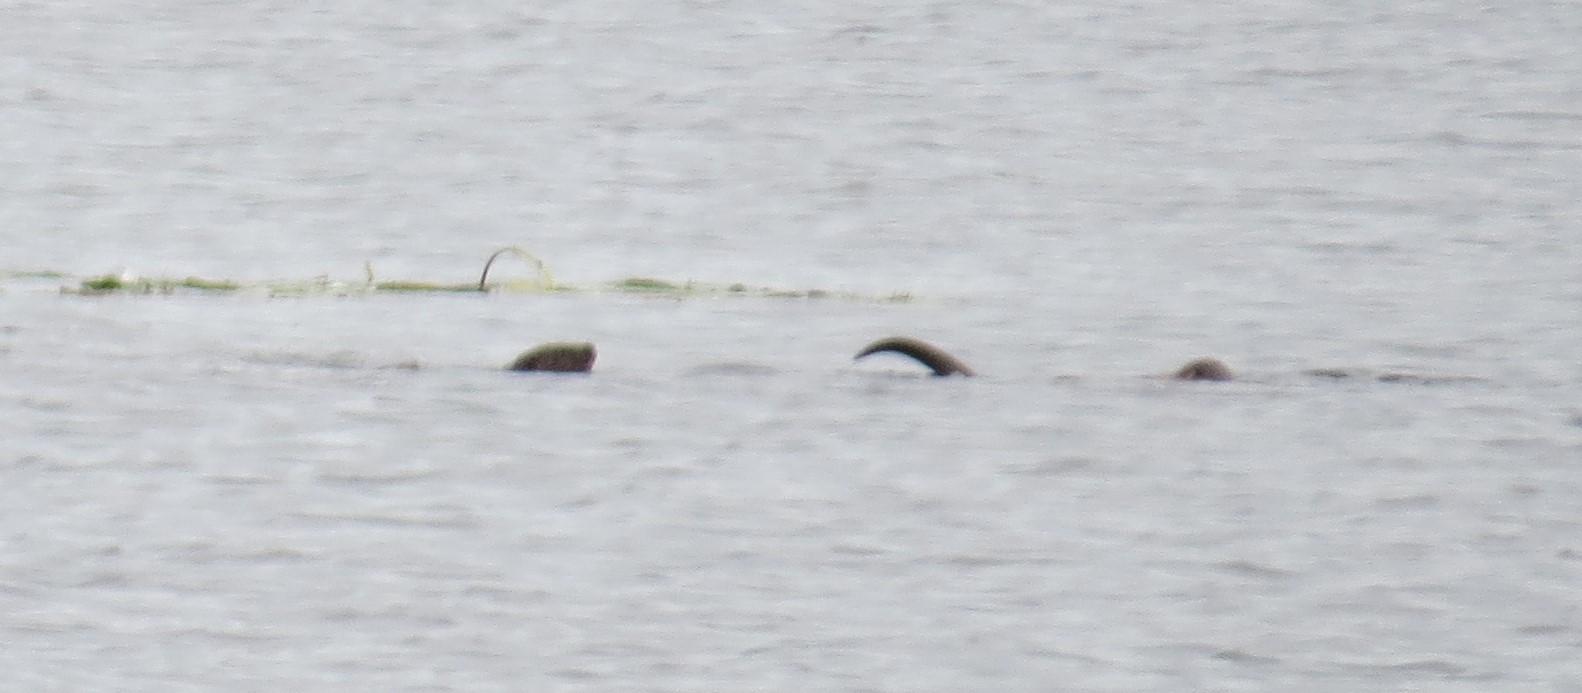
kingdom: Animalia
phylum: Chordata
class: Mammalia
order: Carnivora
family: Mustelidae
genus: Lontra
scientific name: Lontra canadensis
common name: North american river otter
